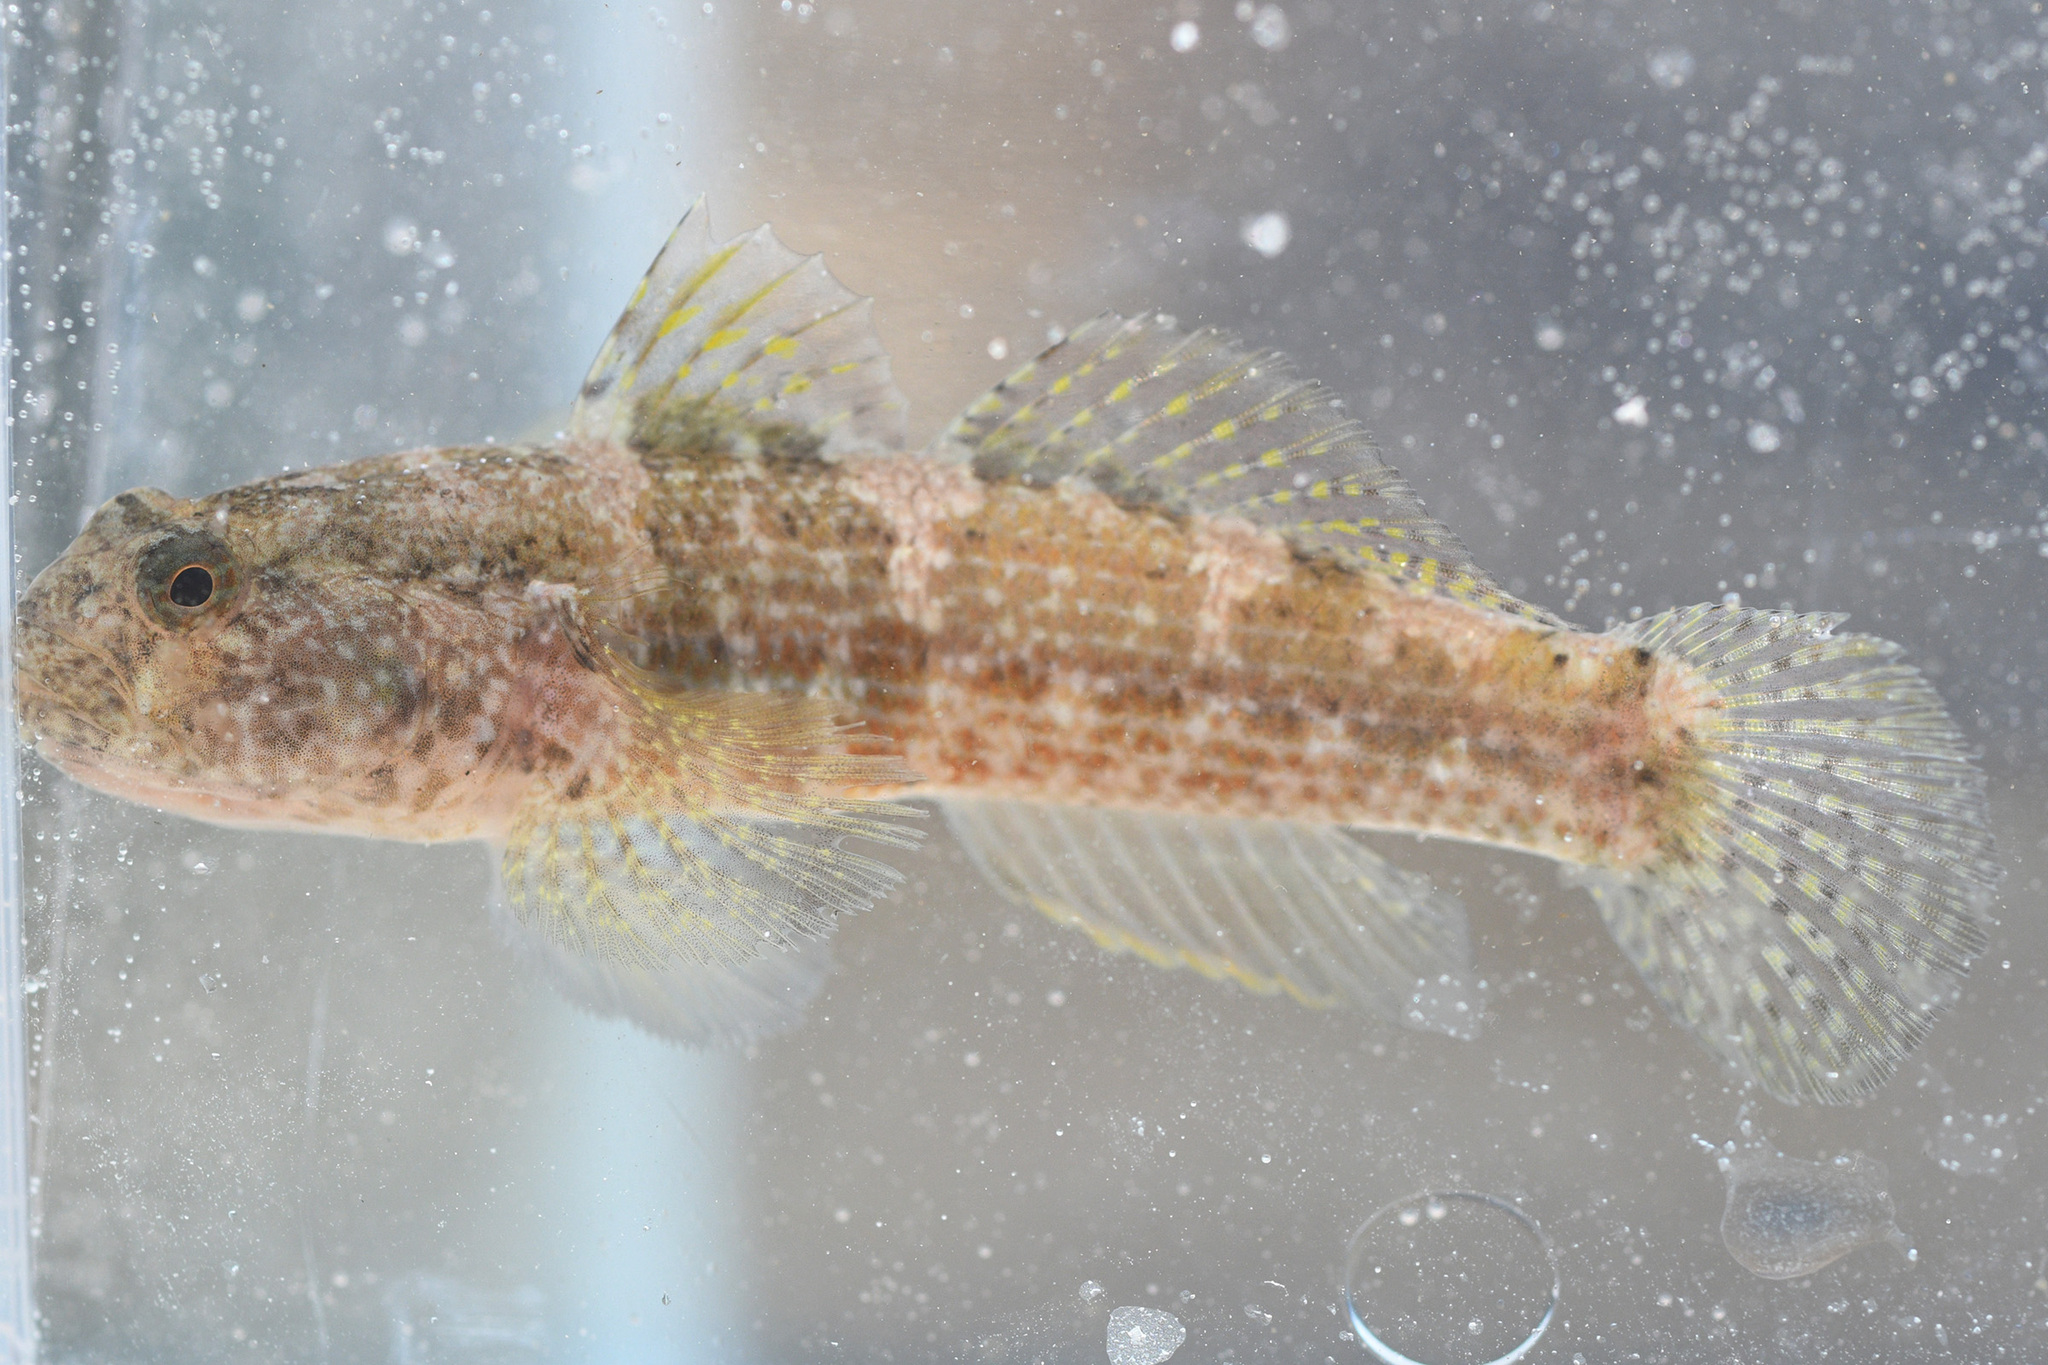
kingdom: Animalia
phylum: Chordata
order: Perciformes
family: Gobiidae
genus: Bathygobius
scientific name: Bathygobius krefftii
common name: Frayedfin goby
